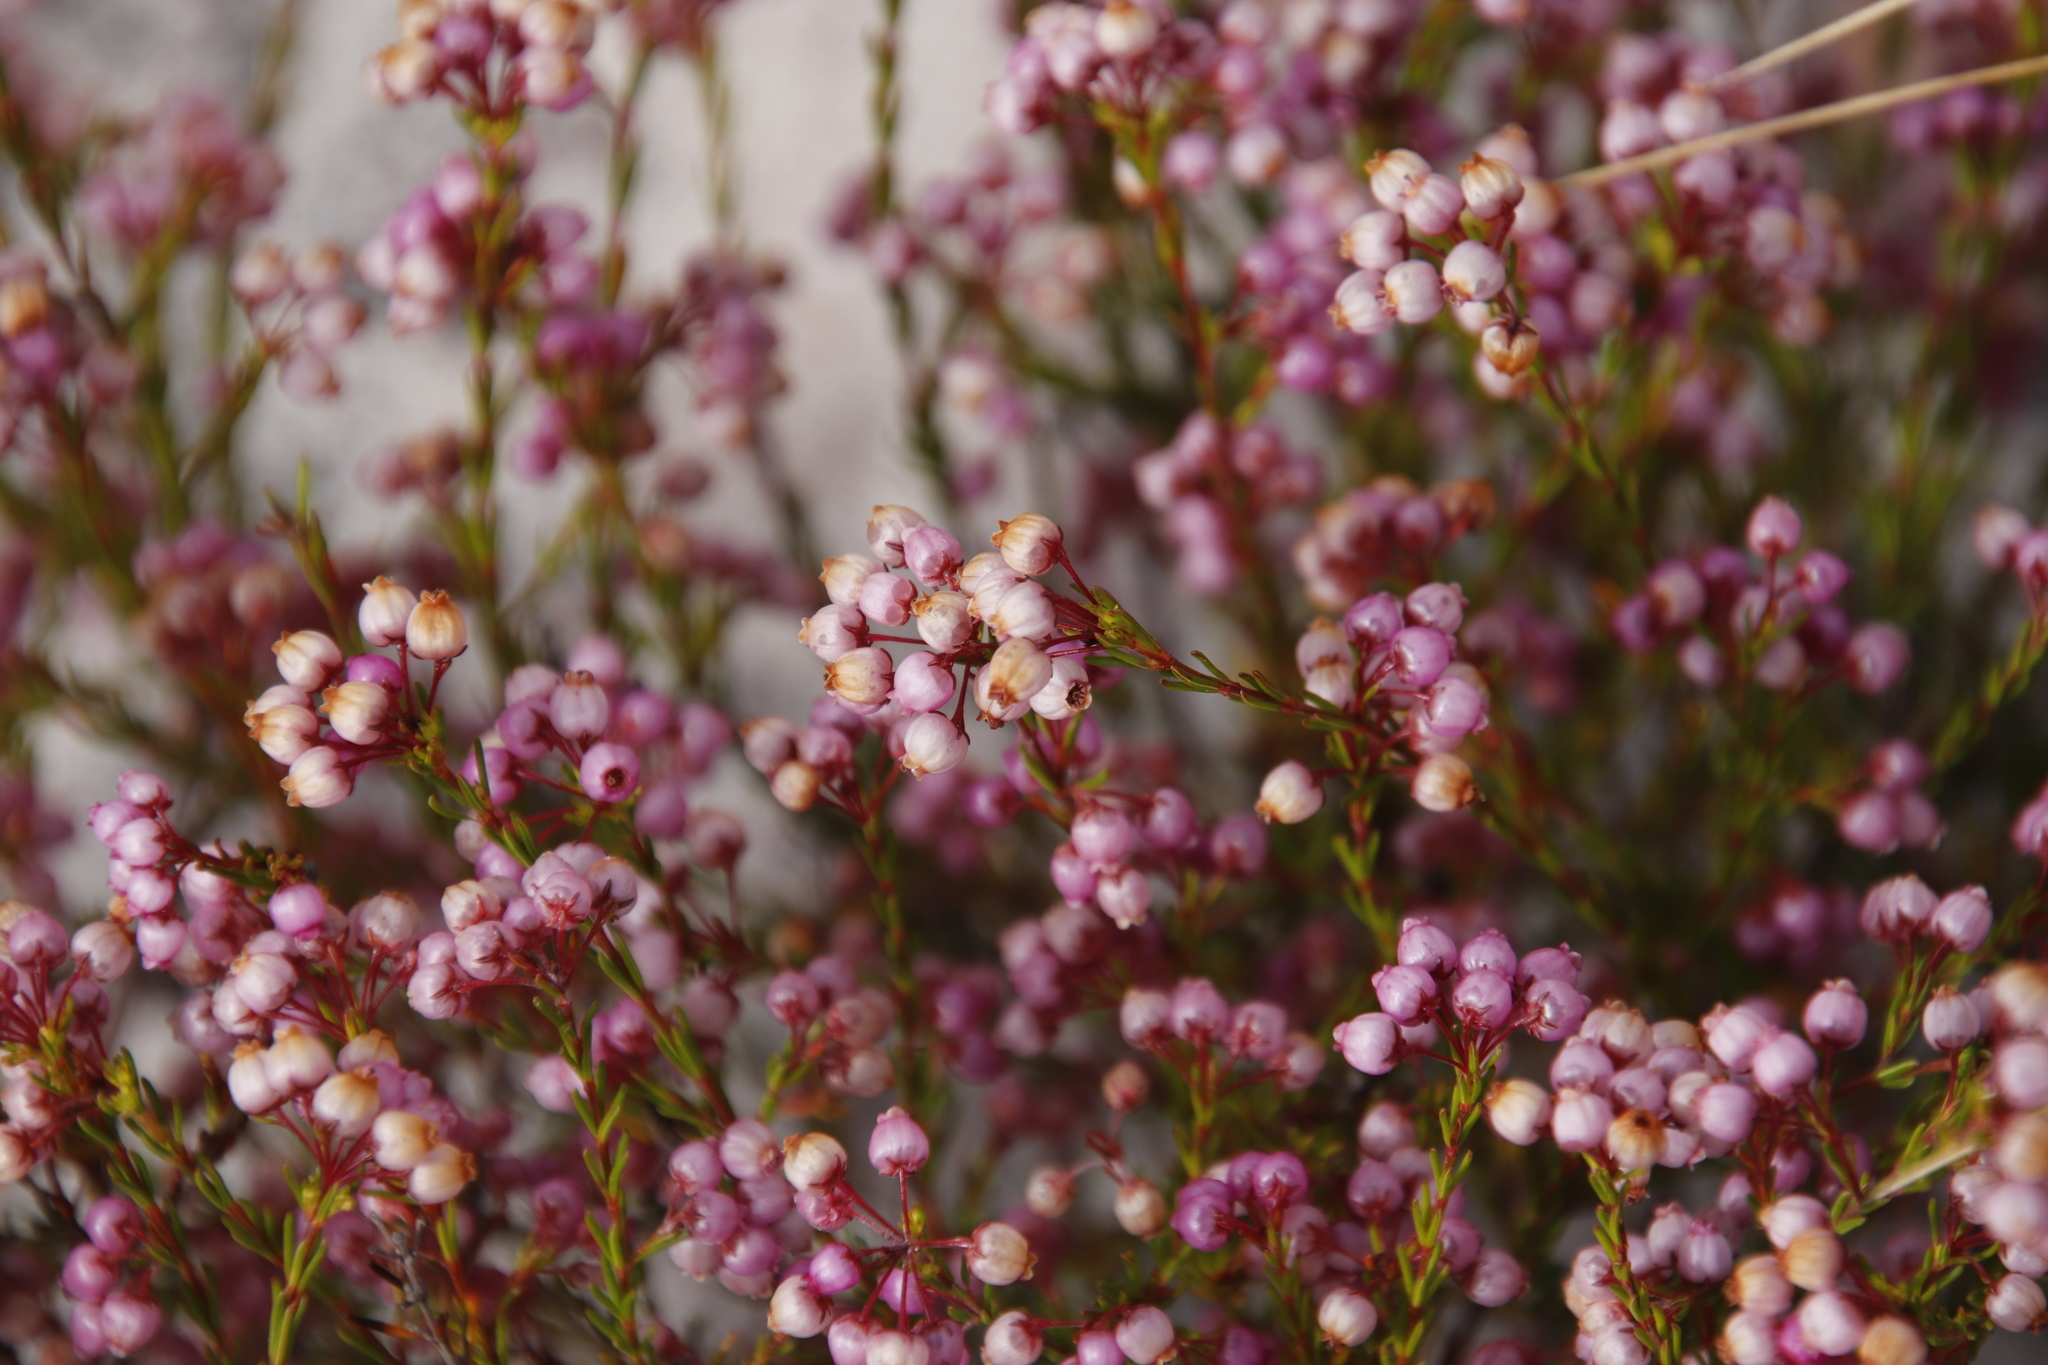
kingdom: Plantae
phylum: Tracheophyta
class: Magnoliopsida
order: Ericales
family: Ericaceae
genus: Erica
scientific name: Erica multumbellifera
